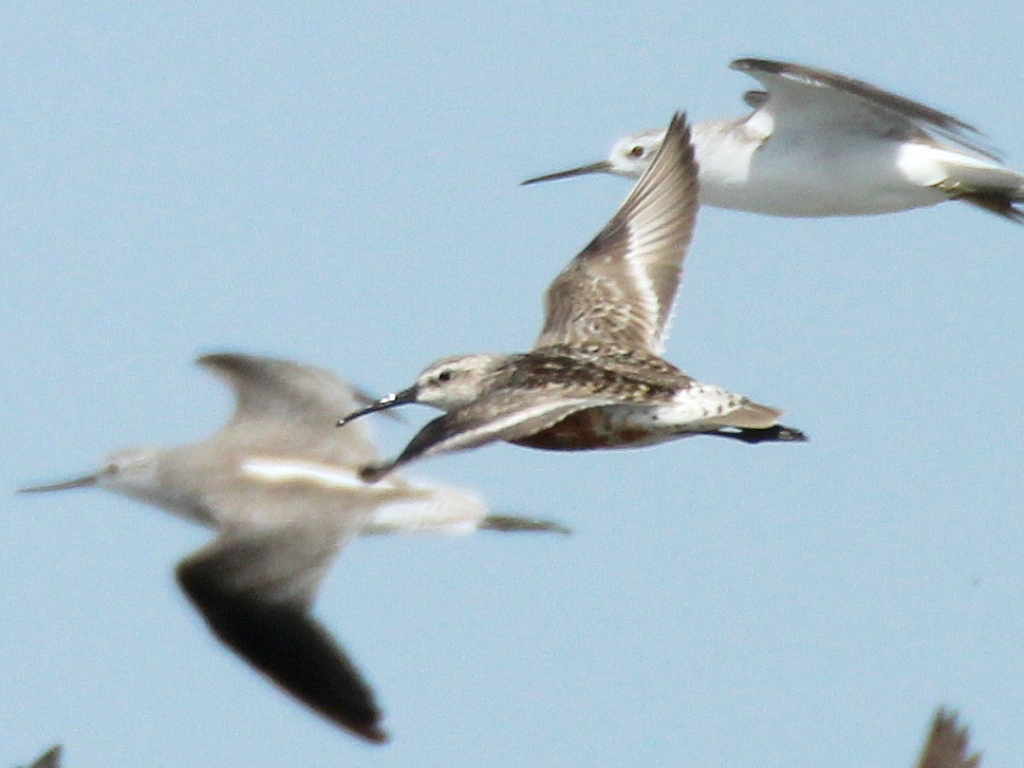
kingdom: Animalia
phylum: Chordata
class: Aves
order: Charadriiformes
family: Scolopacidae
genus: Calidris
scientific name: Calidris ferruginea
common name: Curlew sandpiper
